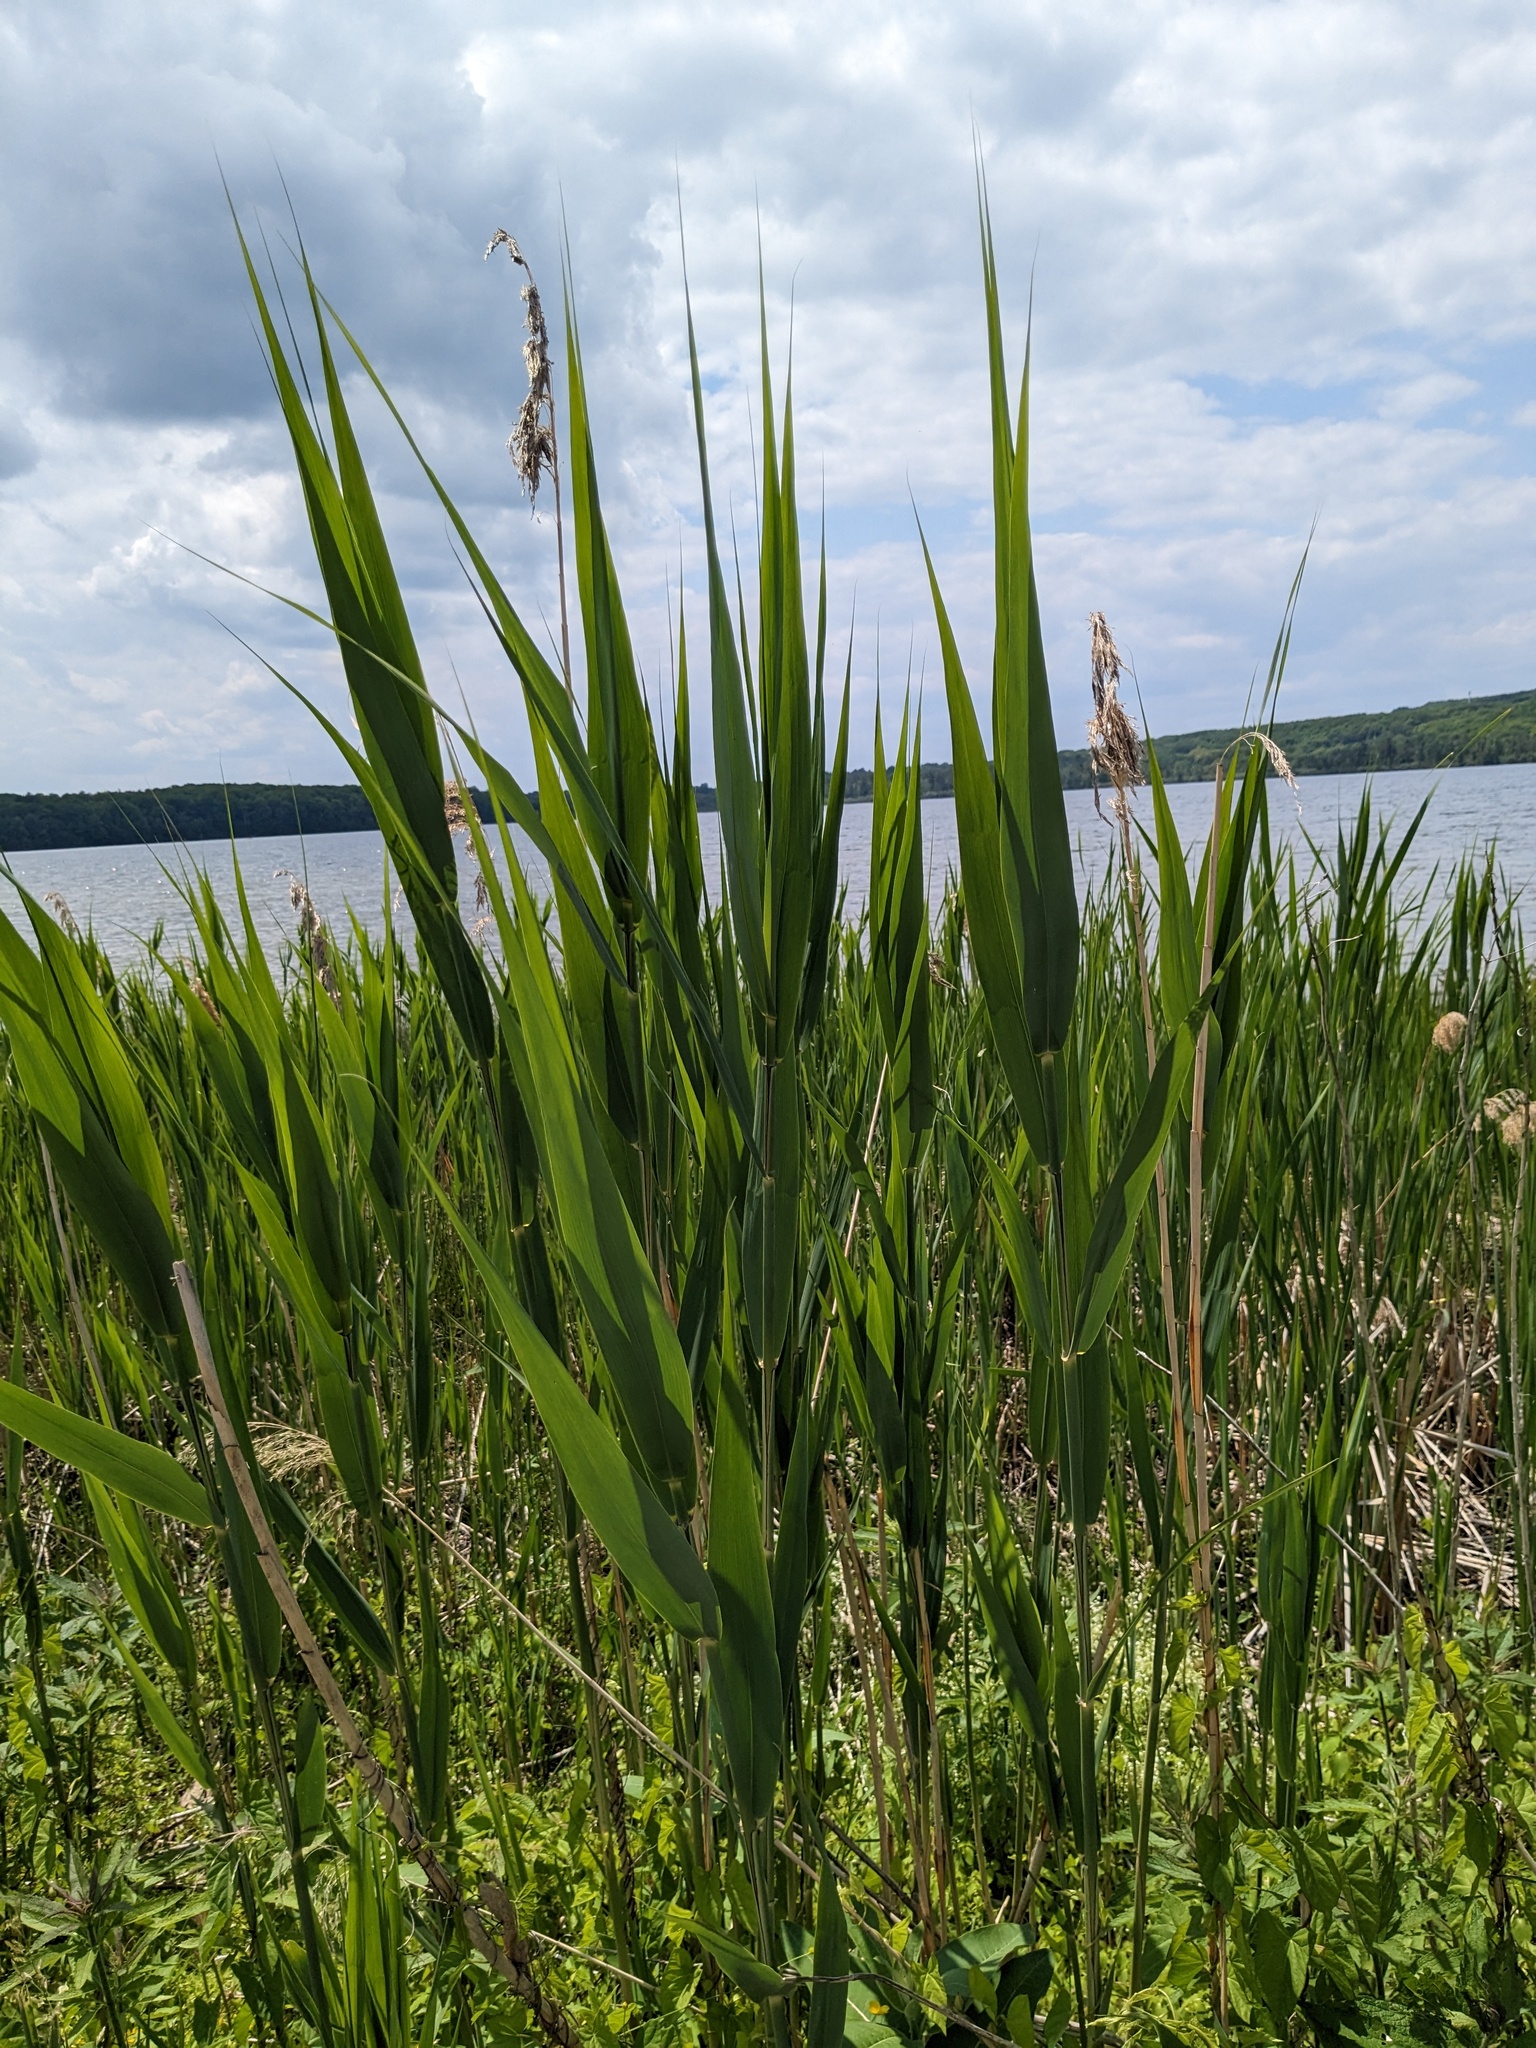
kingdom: Plantae
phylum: Tracheophyta
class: Liliopsida
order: Poales
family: Poaceae
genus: Phragmites
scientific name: Phragmites australis
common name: Common reed
